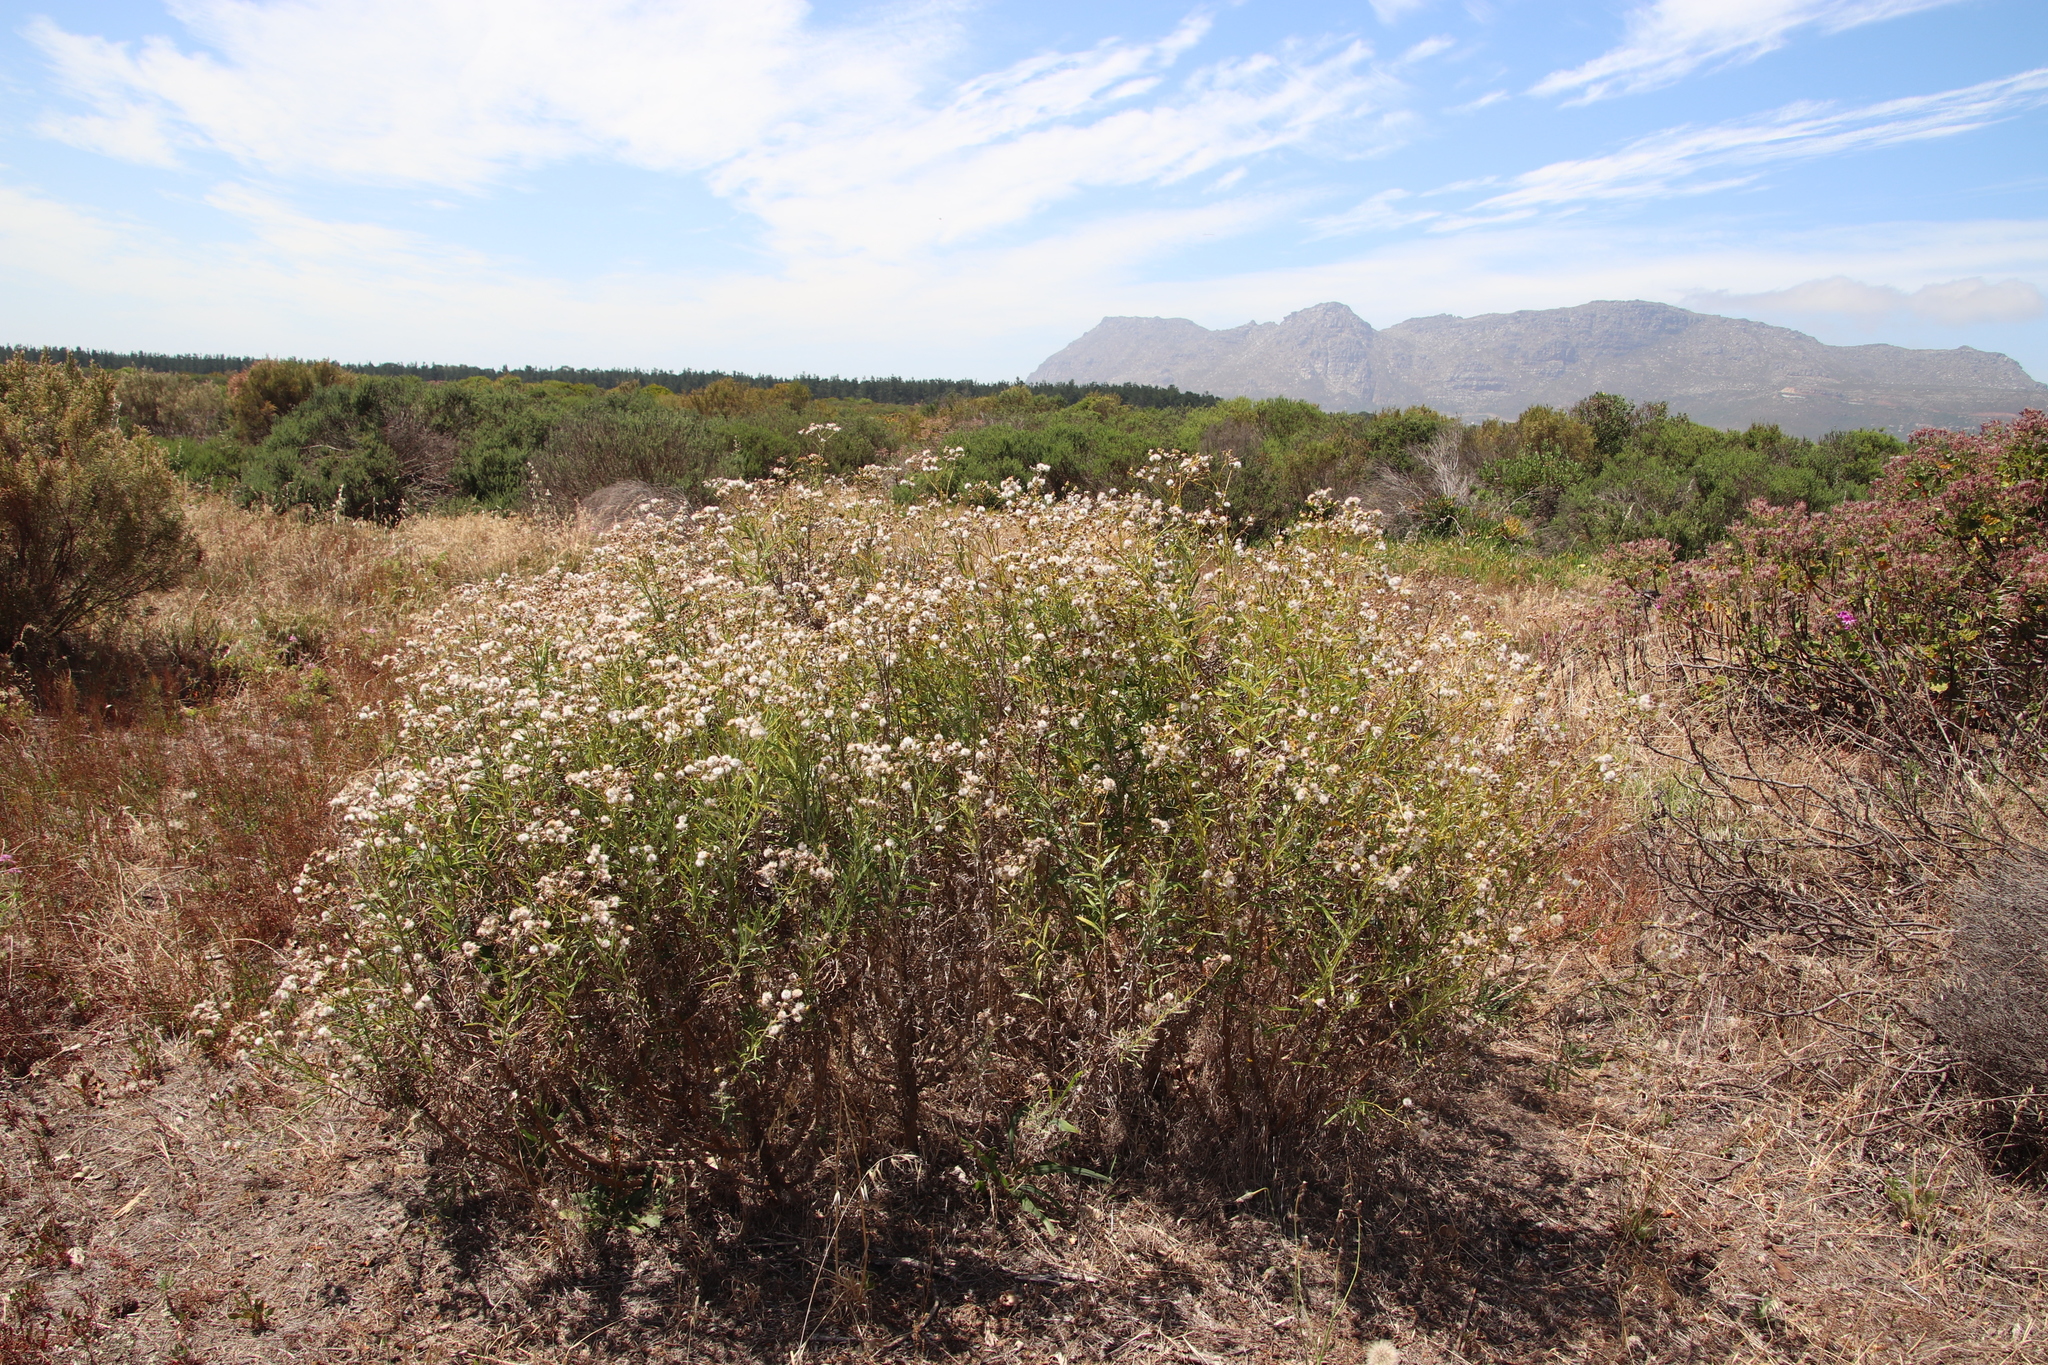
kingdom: Plantae
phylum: Tracheophyta
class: Magnoliopsida
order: Asterales
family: Asteraceae
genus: Senecio
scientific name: Senecio pterophorus
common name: Shoddy ragwort
